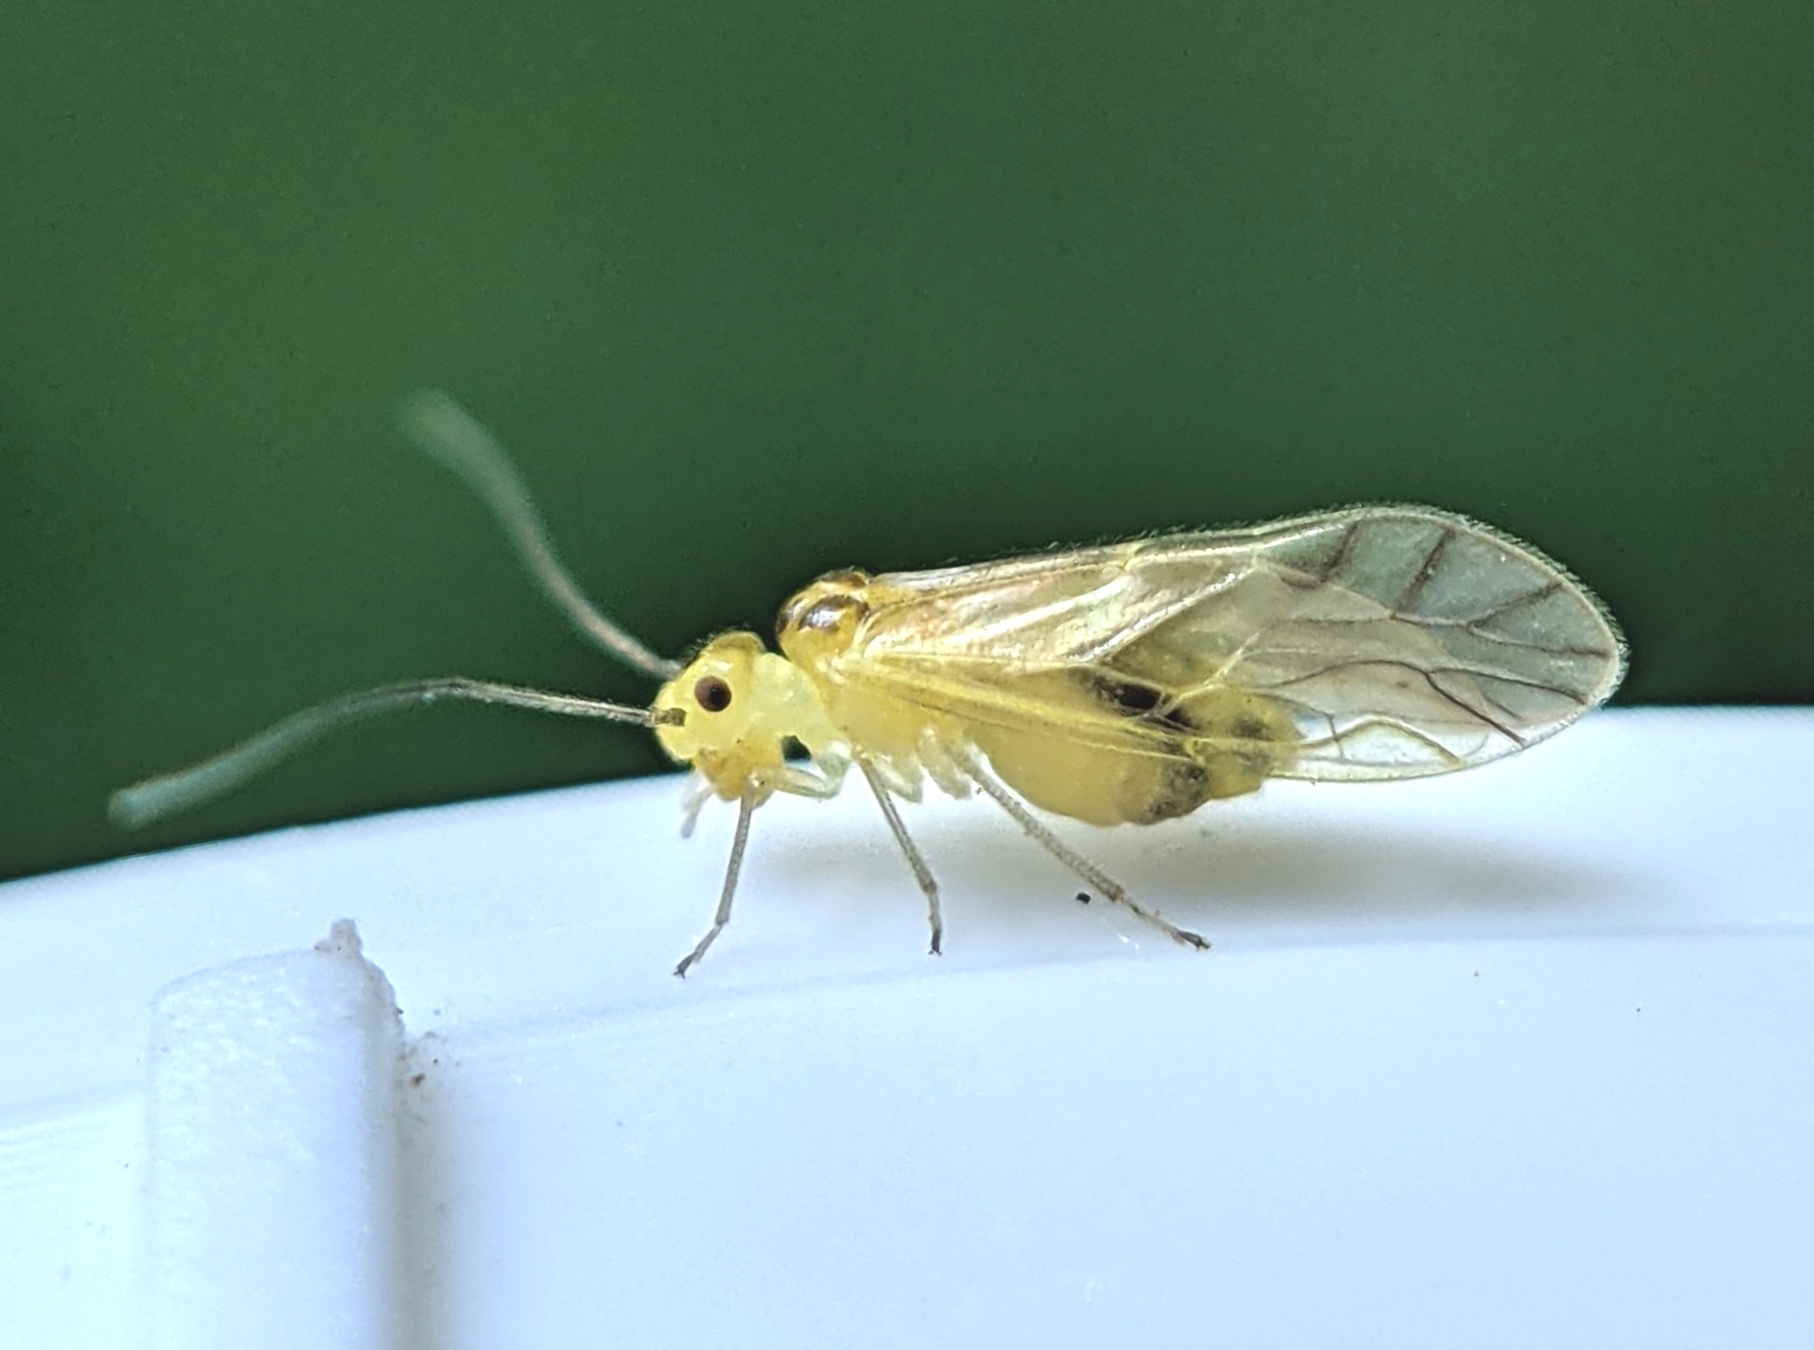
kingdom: Animalia
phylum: Arthropoda
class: Insecta
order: Psocodea
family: Caeciliusidae
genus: Valenzuela
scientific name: Valenzuela flavidus
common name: Yellow barklouse
